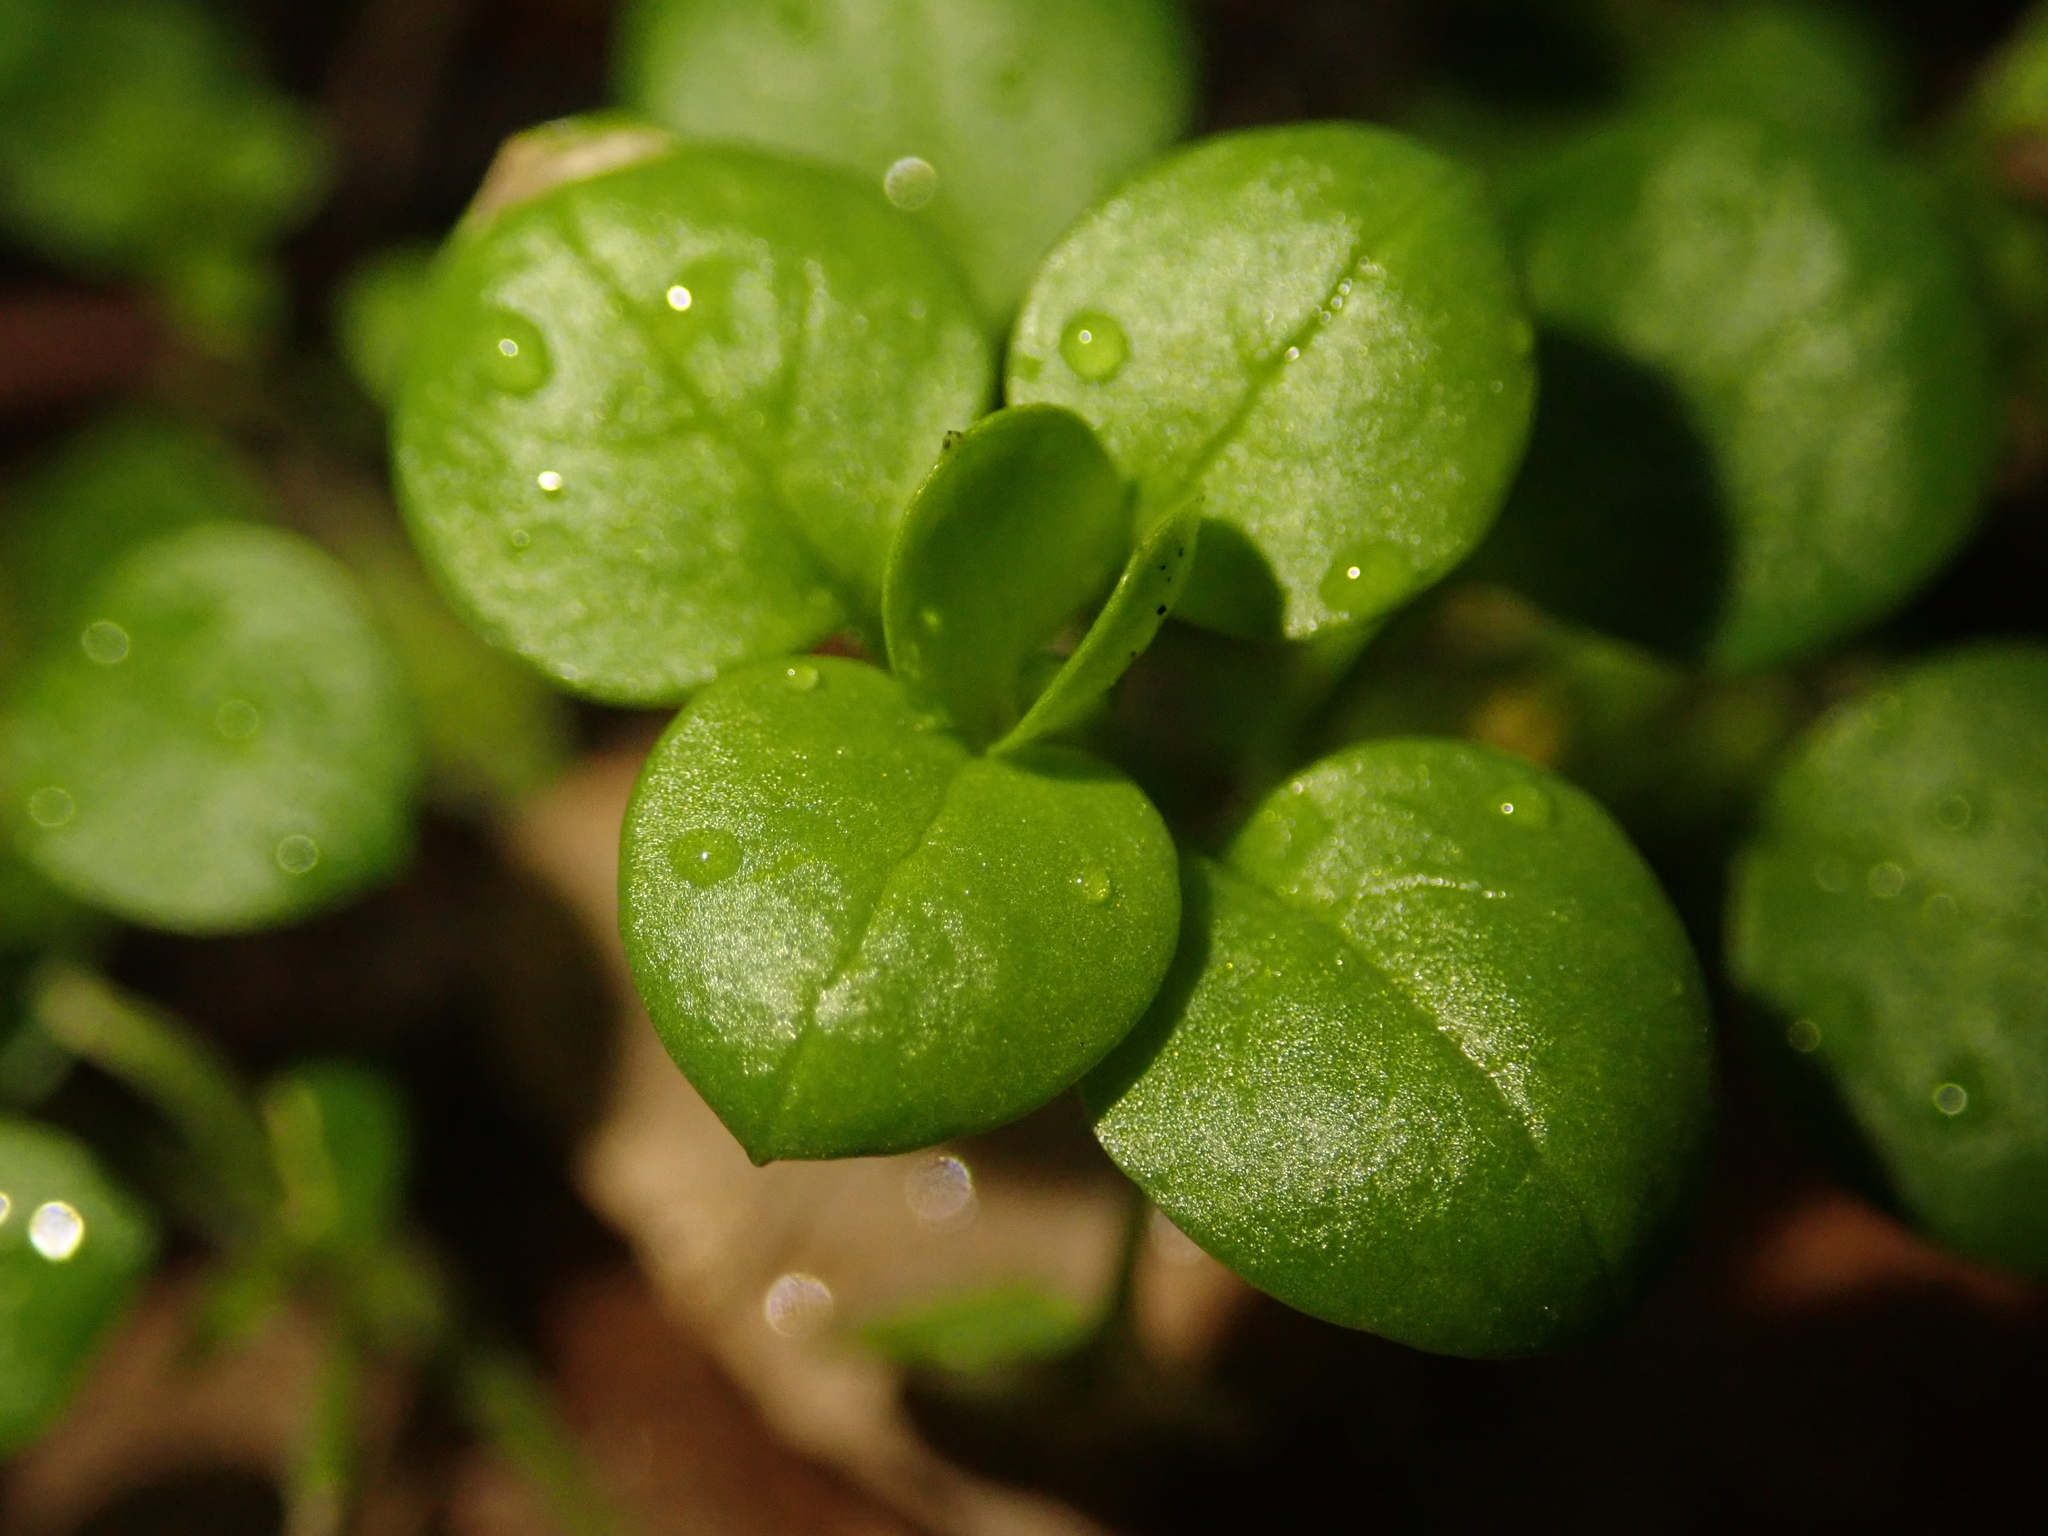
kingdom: Plantae
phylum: Tracheophyta
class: Magnoliopsida
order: Caryophyllales
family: Caryophyllaceae
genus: Stellaria
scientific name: Stellaria media
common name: Common chickweed
